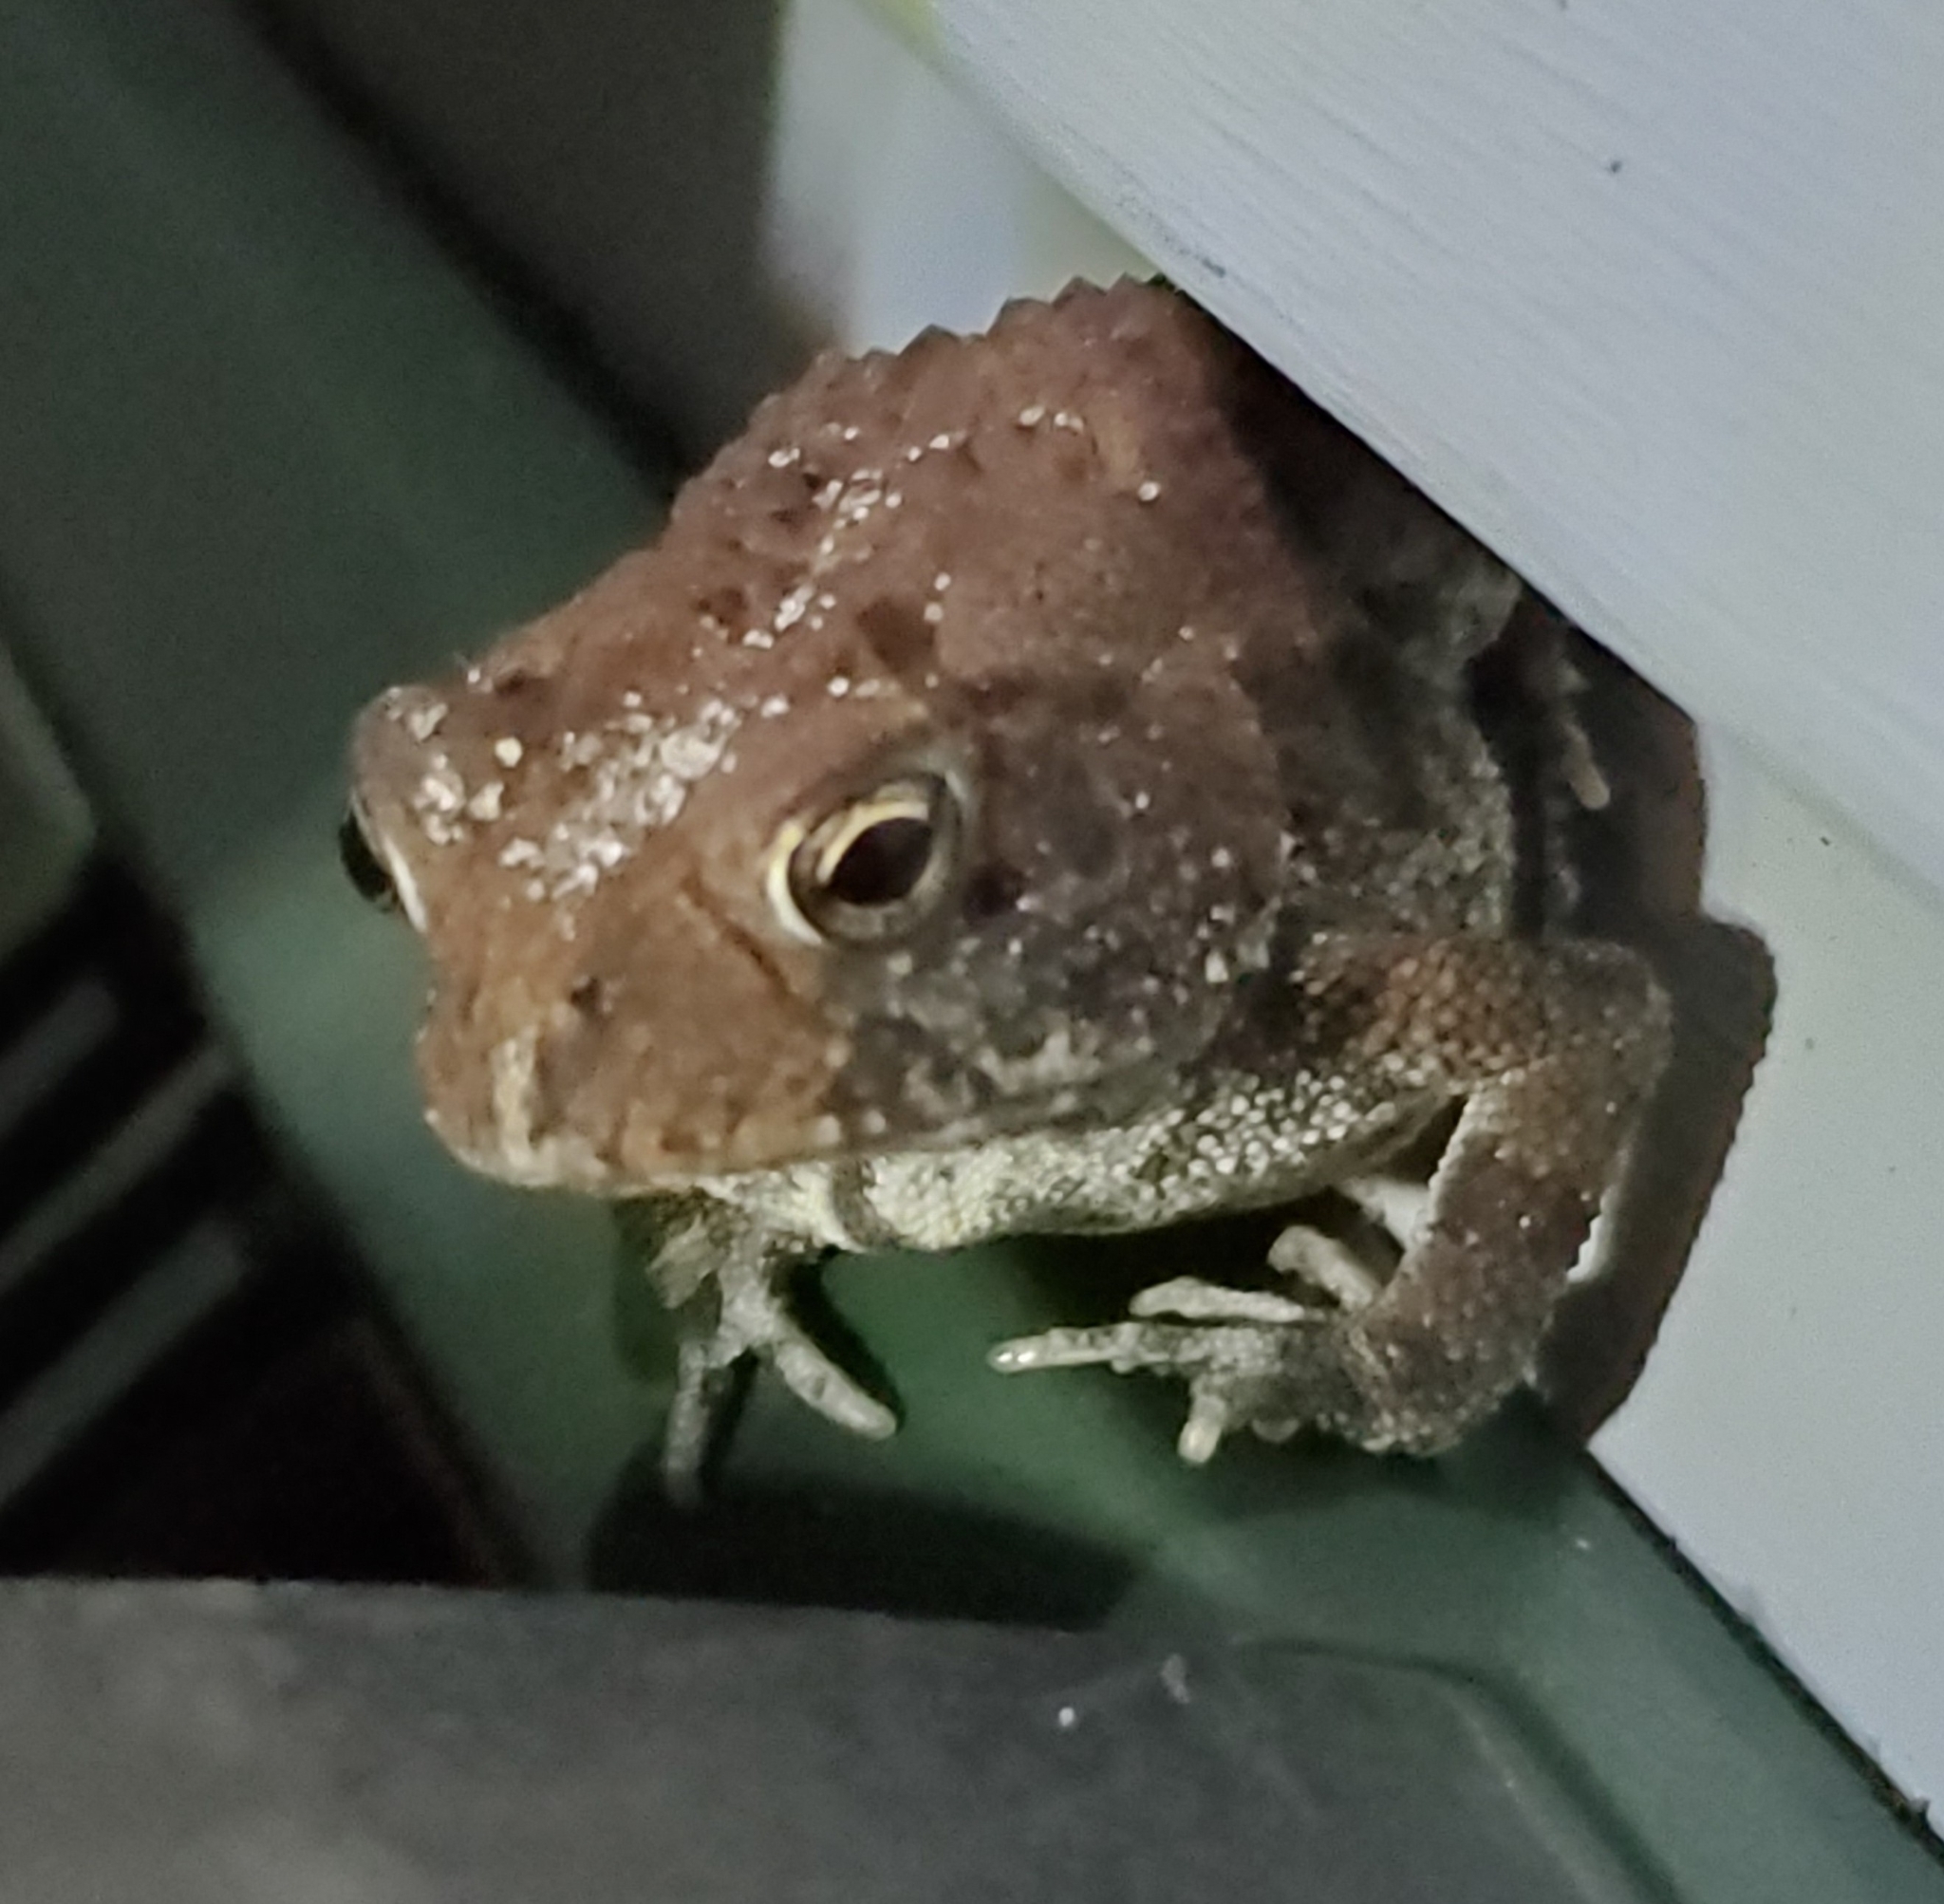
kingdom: Animalia
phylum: Chordata
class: Amphibia
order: Anura
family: Bufonidae
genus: Anaxyrus
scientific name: Anaxyrus terrestris
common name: Southern toad
